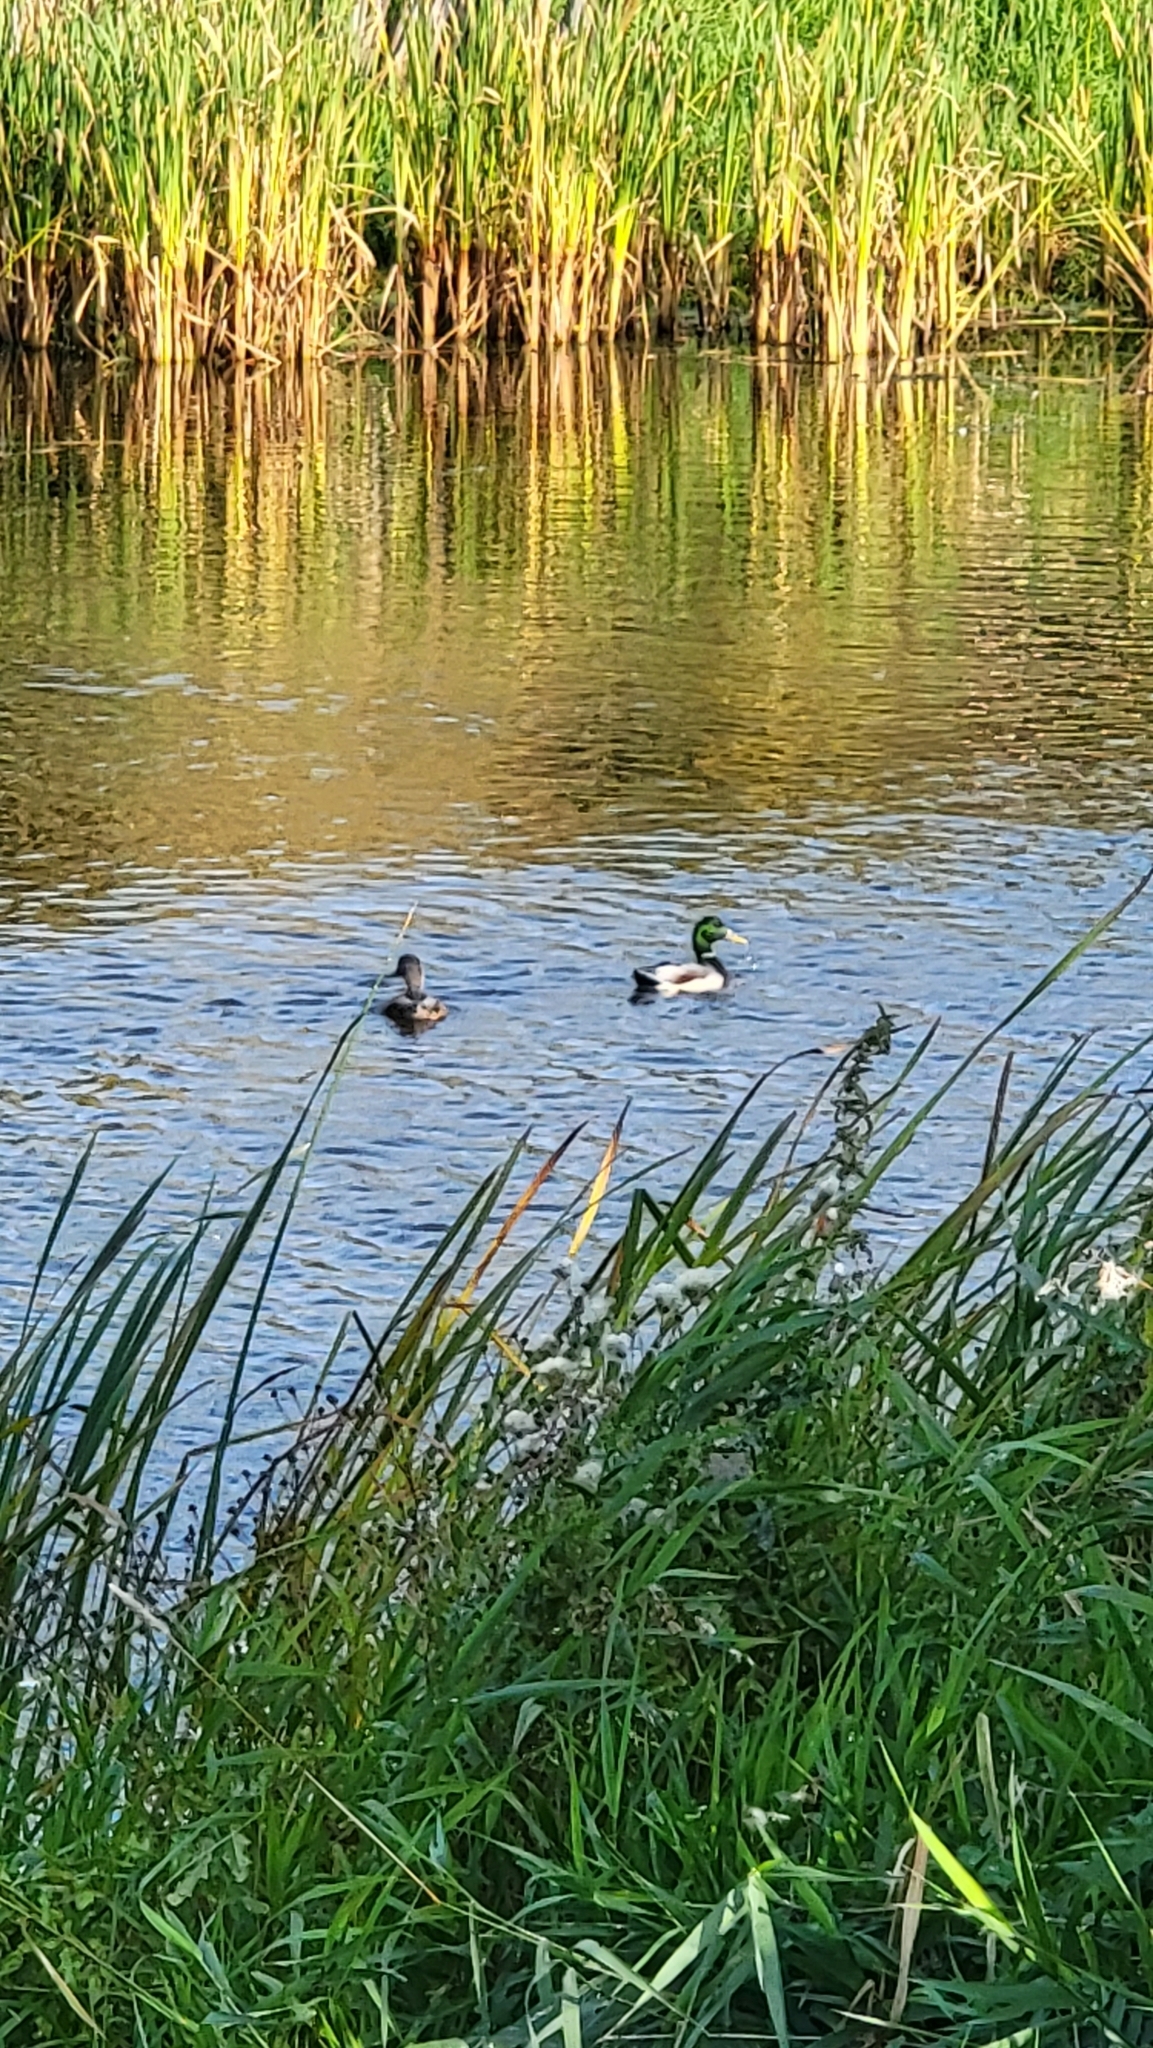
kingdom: Animalia
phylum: Chordata
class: Aves
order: Anseriformes
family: Anatidae
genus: Anas
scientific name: Anas platyrhynchos
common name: Mallard
